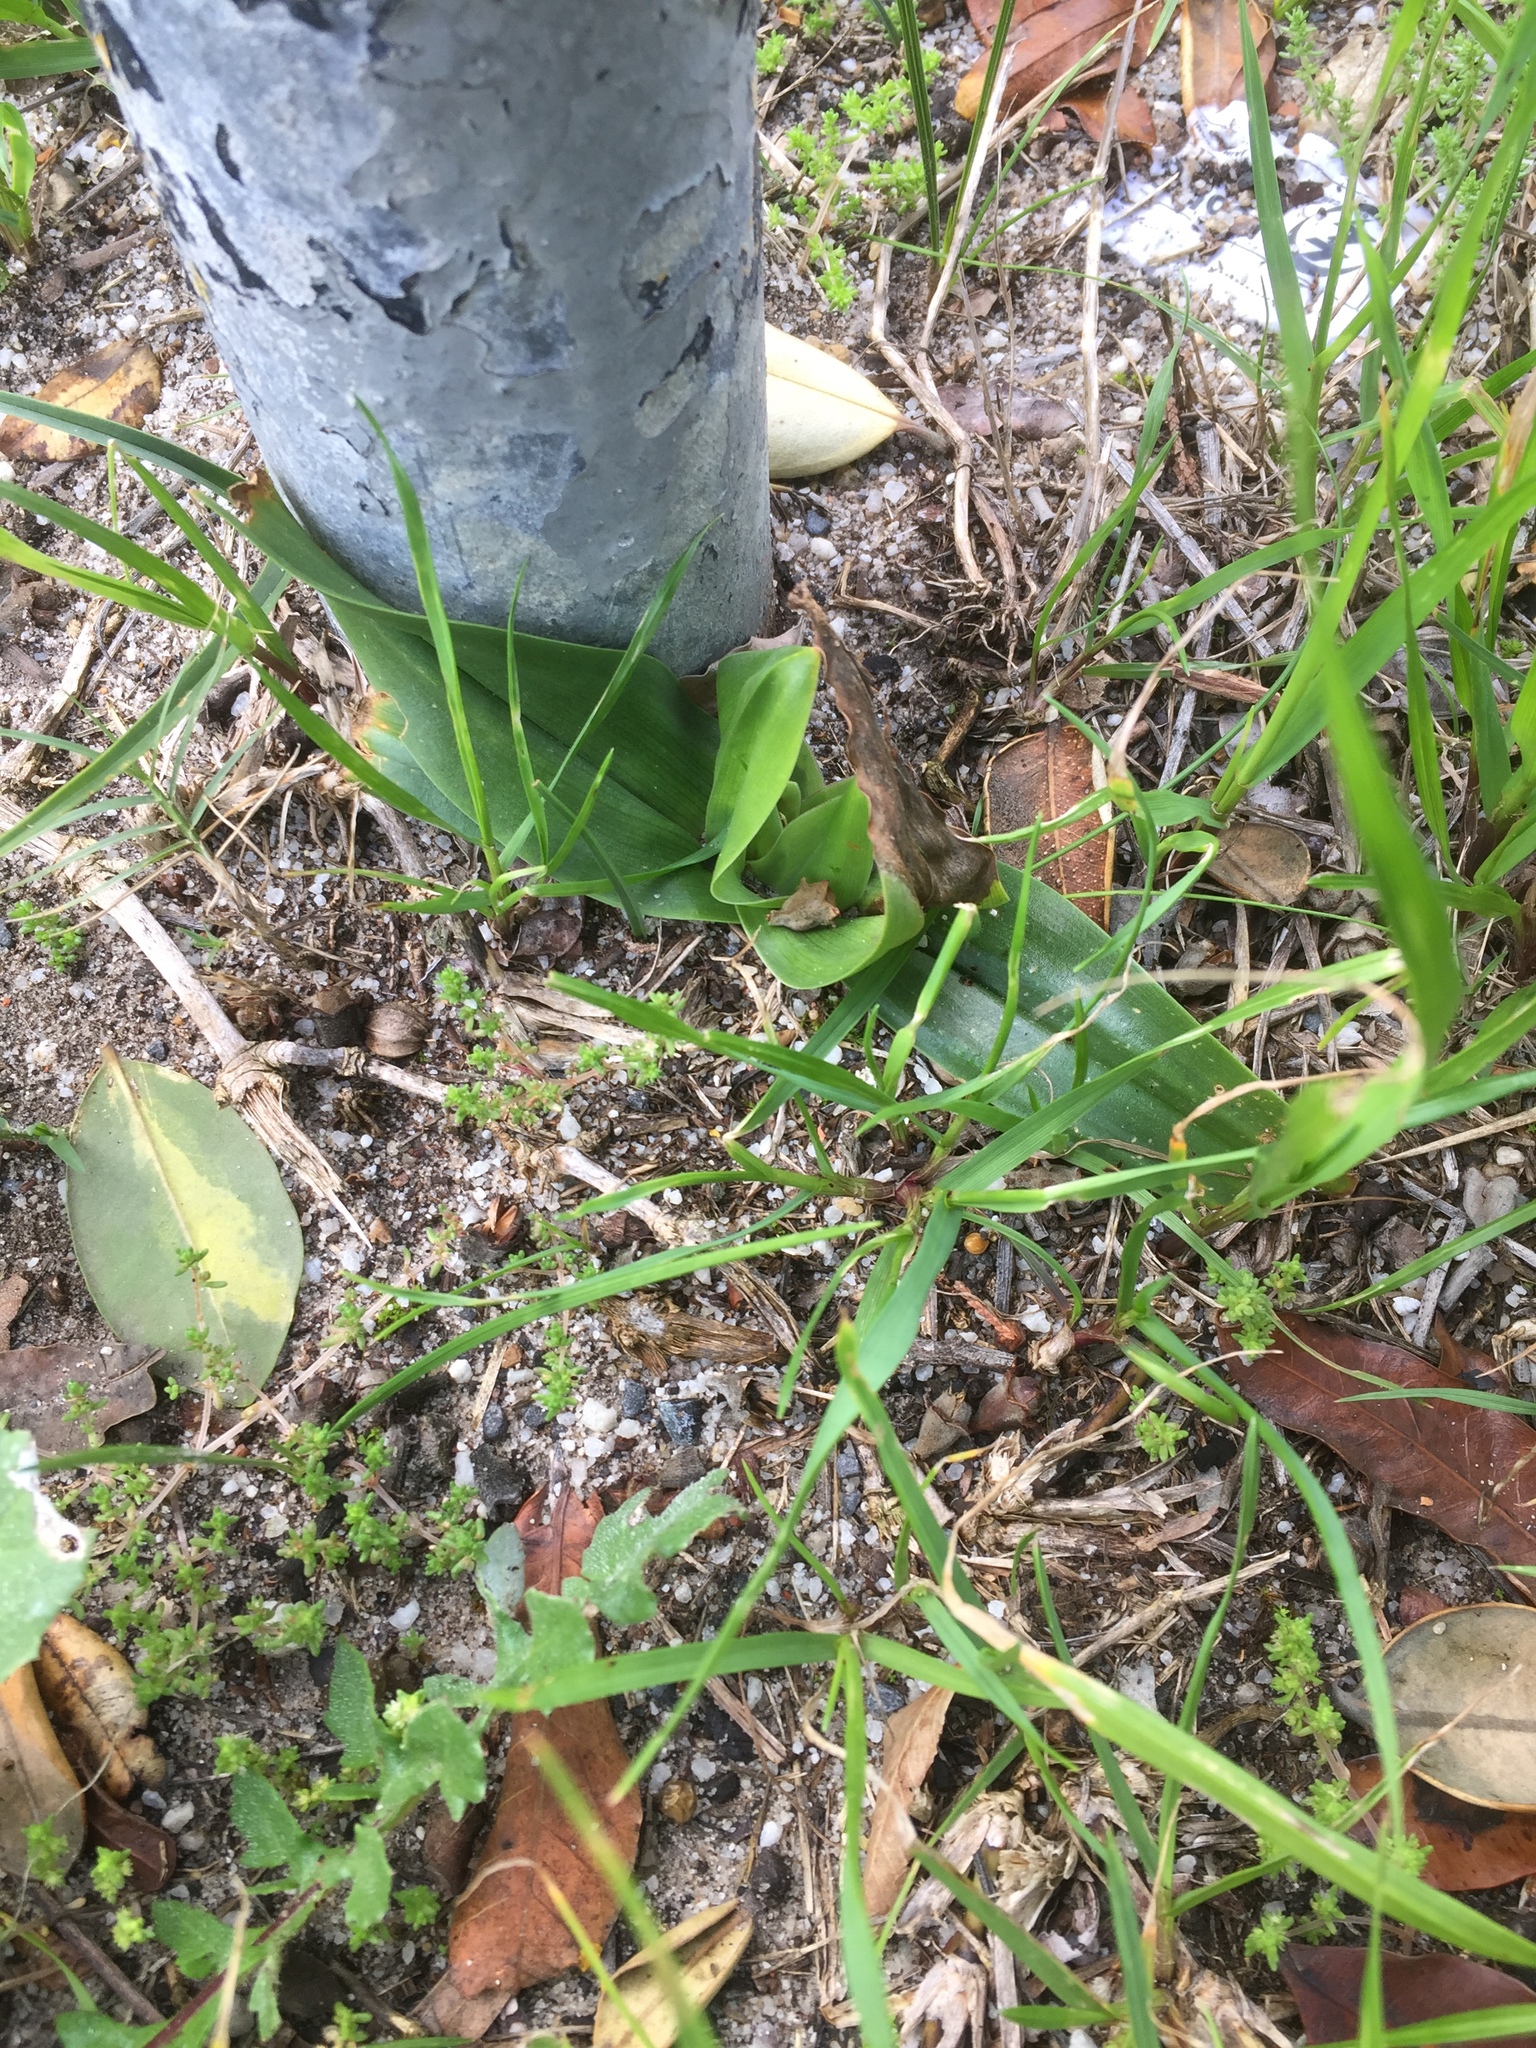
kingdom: Plantae
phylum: Tracheophyta
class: Liliopsida
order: Liliales
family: Colchicaceae
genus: Colchicum
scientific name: Colchicum eucomoides
